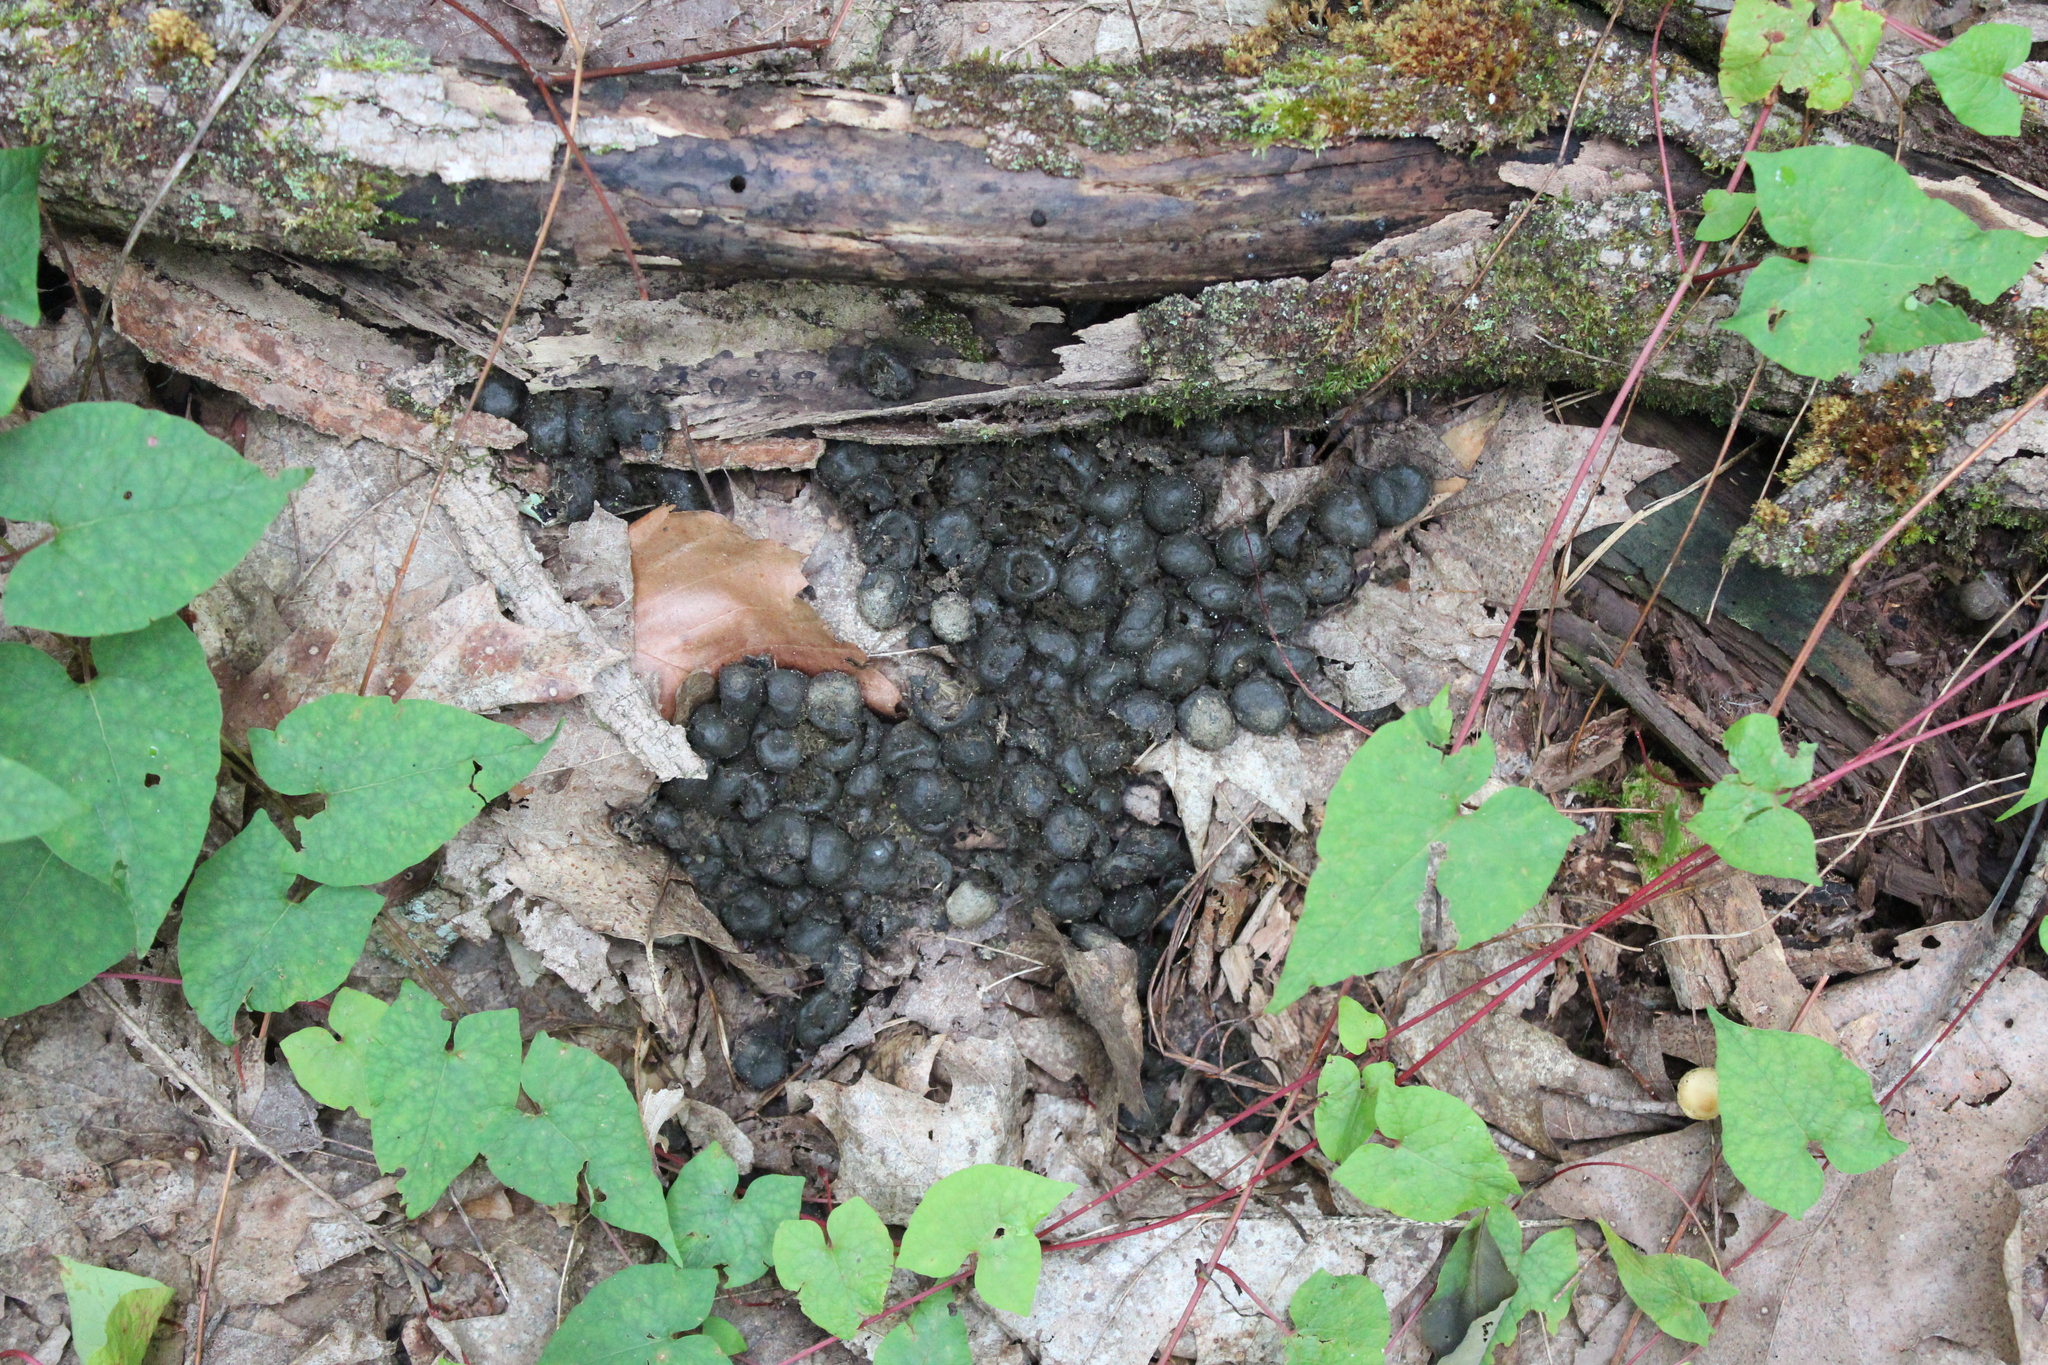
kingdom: Animalia
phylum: Chordata
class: Mammalia
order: Artiodactyla
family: Cervidae
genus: Odocoileus
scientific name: Odocoileus virginianus
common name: White-tailed deer
